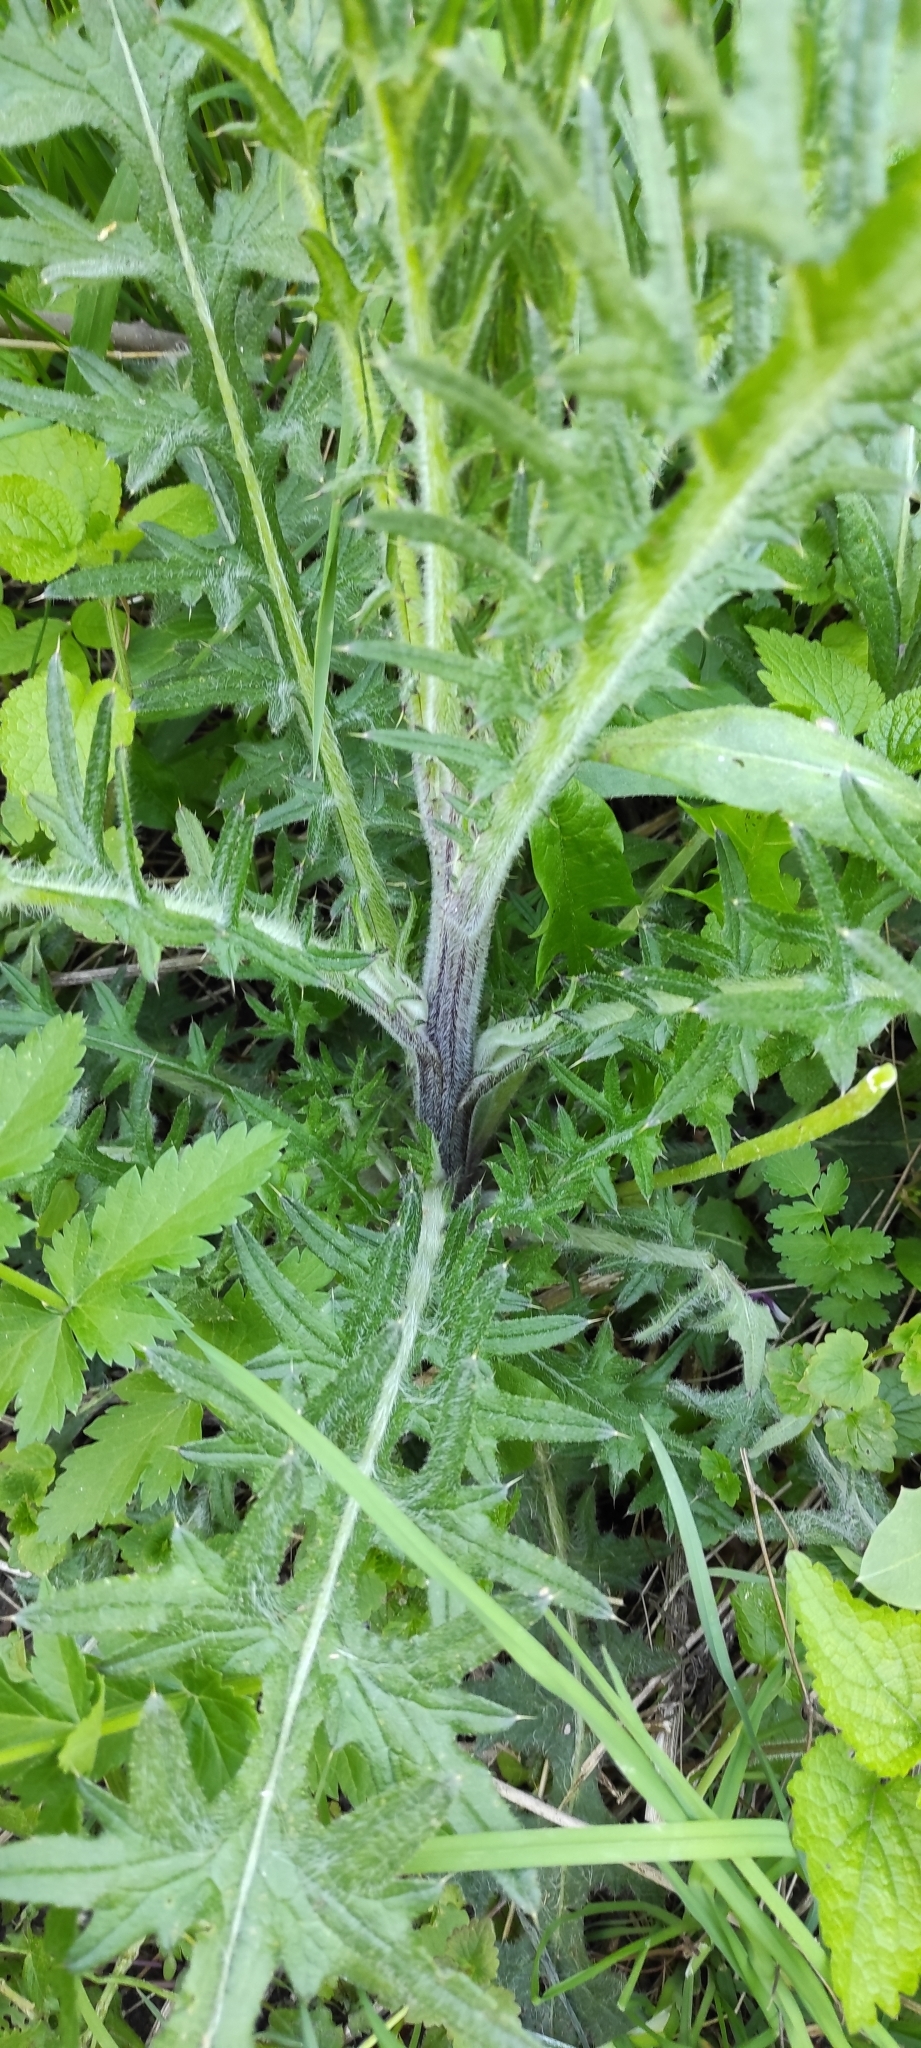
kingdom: Plantae
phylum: Tracheophyta
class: Magnoliopsida
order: Asterales
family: Asteraceae
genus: Cirsium
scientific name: Cirsium vulgare
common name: Bull thistle
